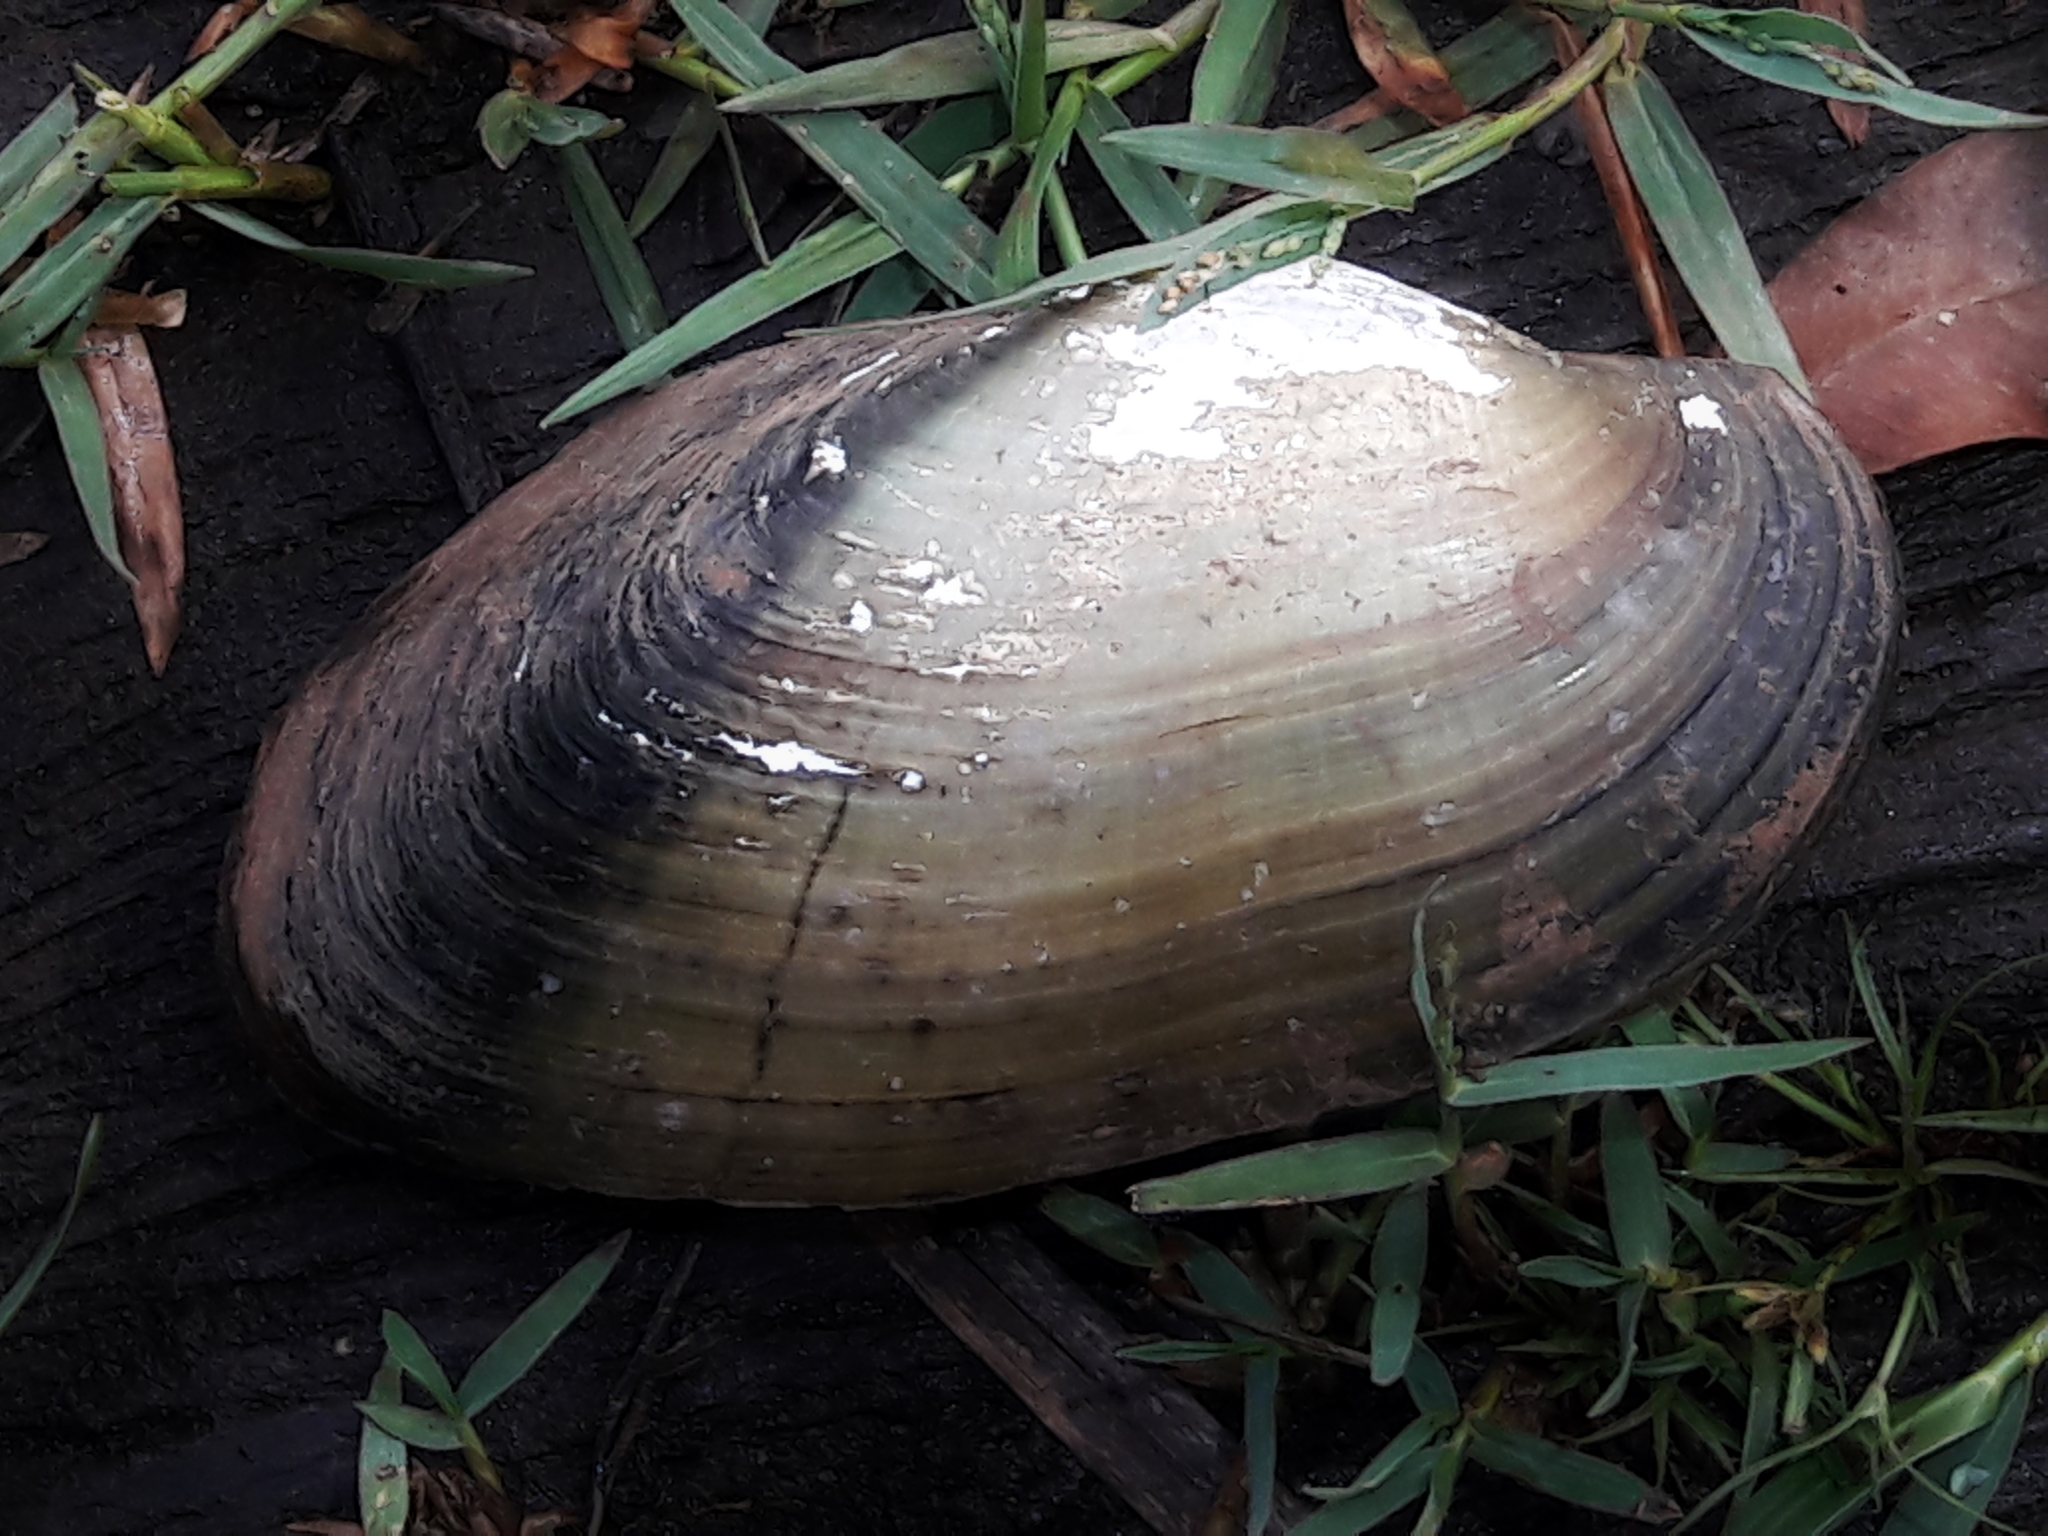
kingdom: Animalia
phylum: Mollusca
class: Bivalvia
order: Unionida
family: Mycetopodidae
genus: Anodontites
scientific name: Anodontites trapesialis
